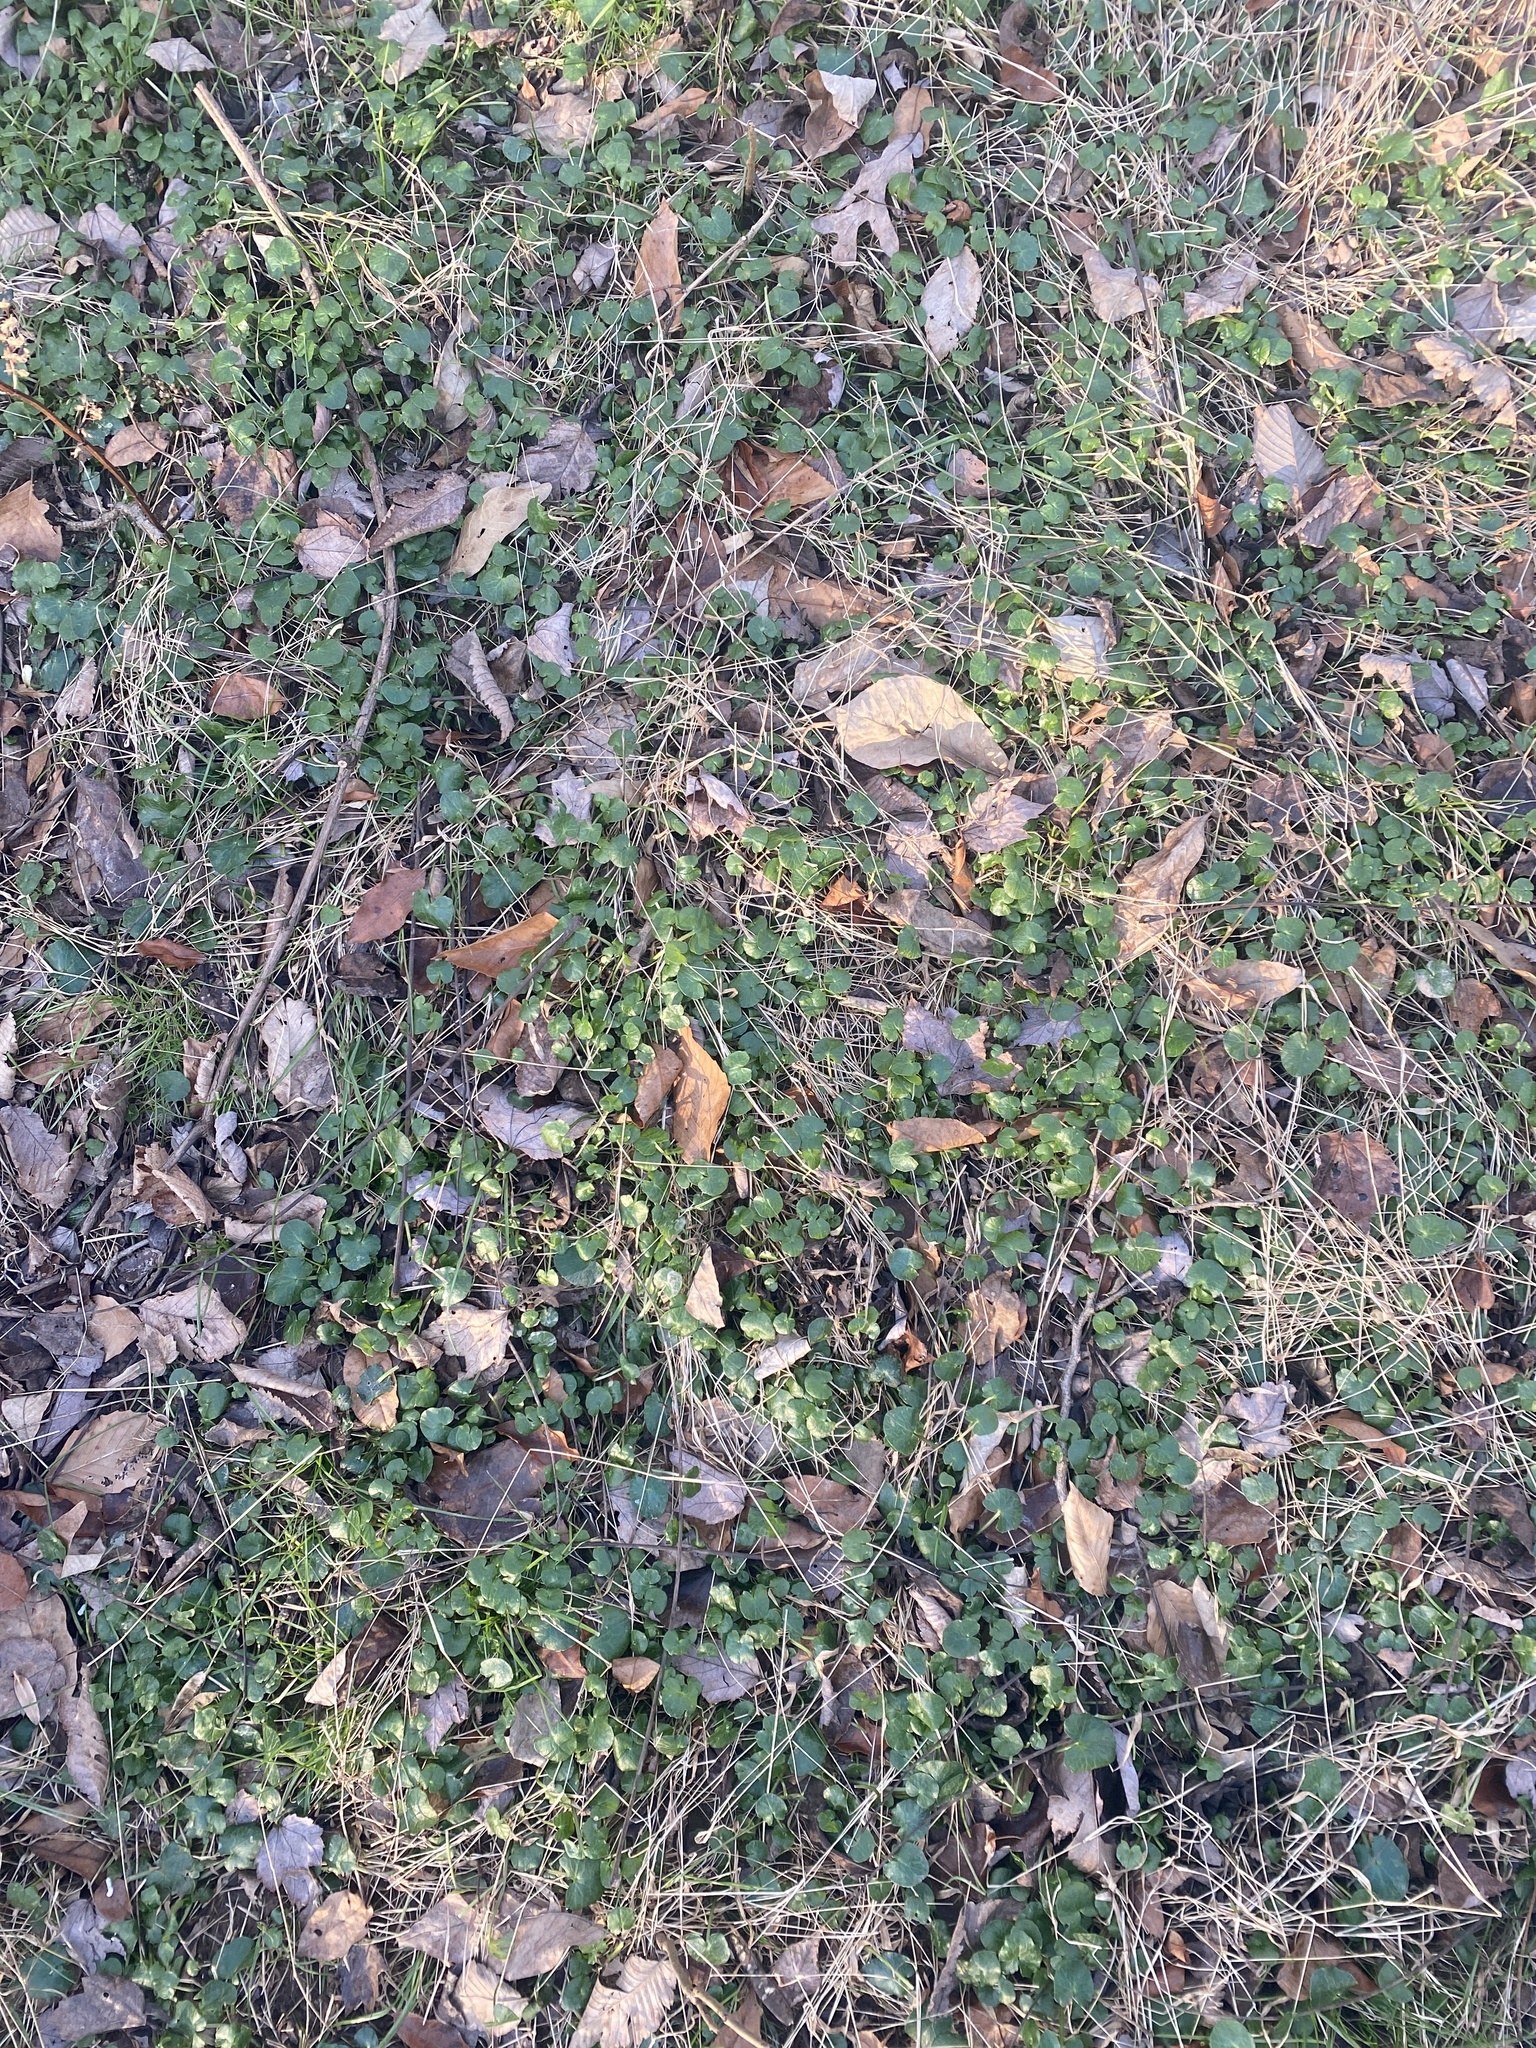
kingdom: Plantae
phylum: Tracheophyta
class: Magnoliopsida
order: Ranunculales
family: Ranunculaceae
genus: Ficaria
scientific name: Ficaria verna
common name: Lesser celandine
